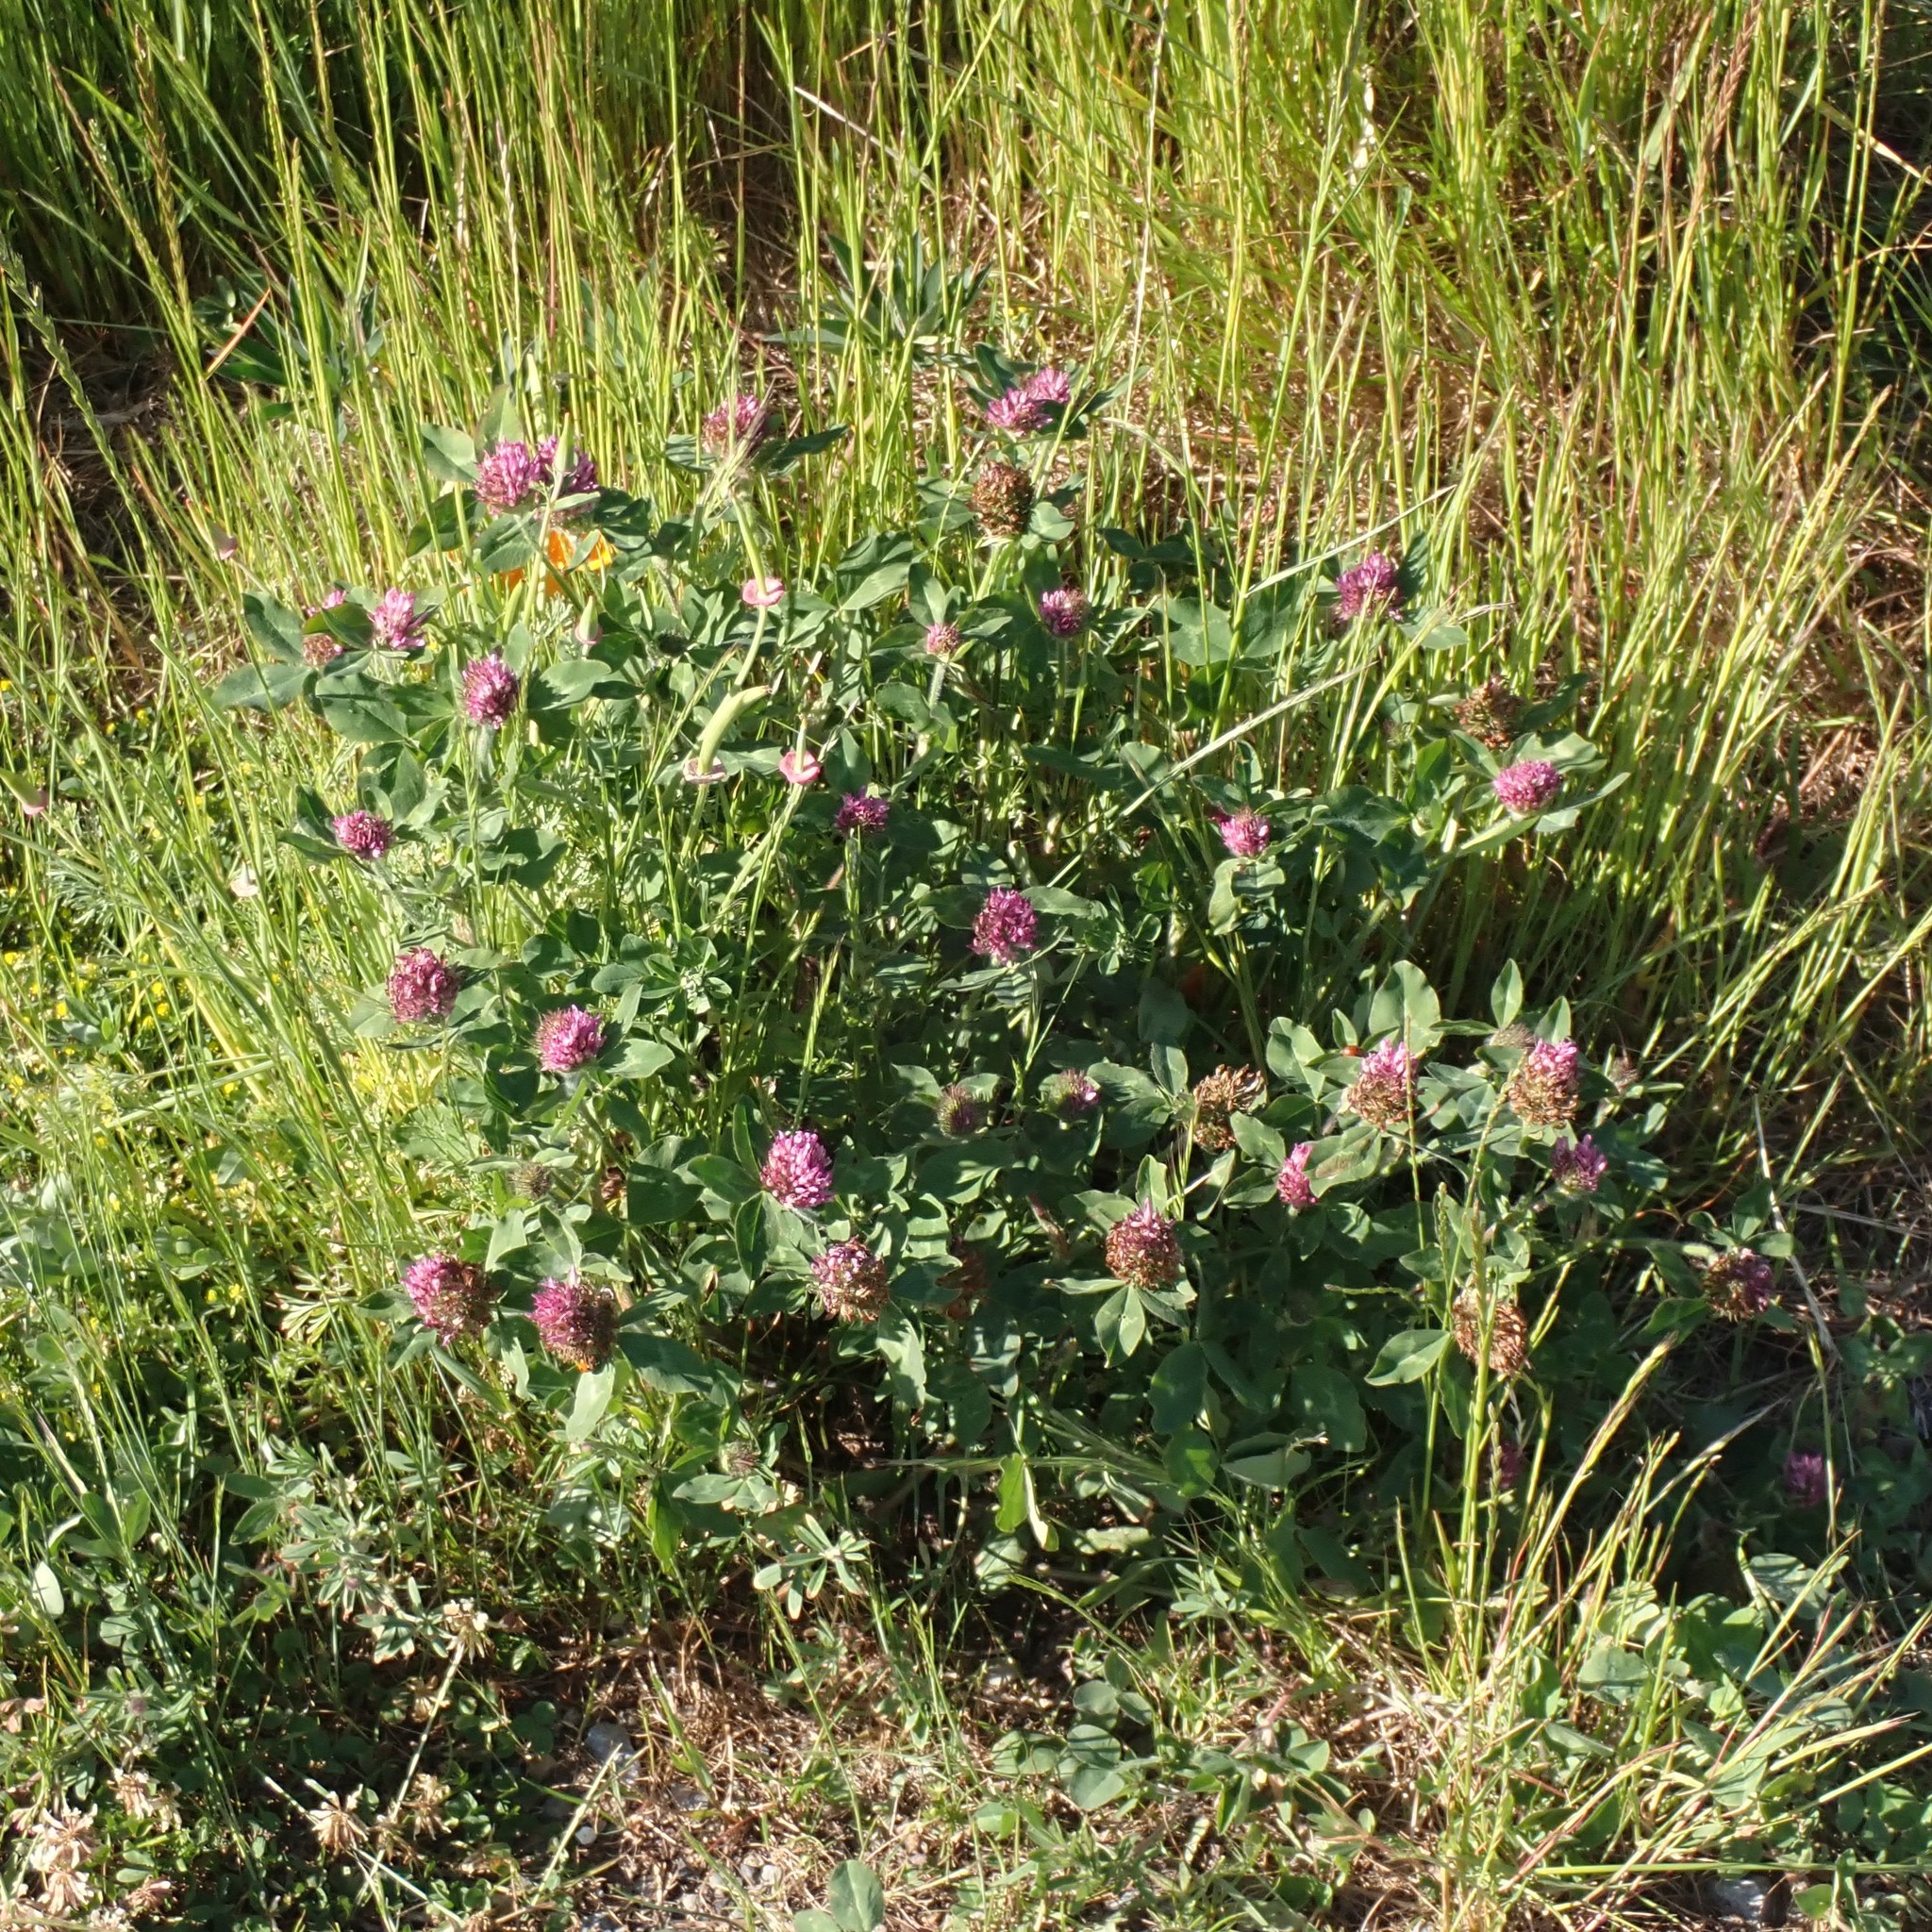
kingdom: Plantae
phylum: Tracheophyta
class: Magnoliopsida
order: Fabales
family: Fabaceae
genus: Trifolium
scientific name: Trifolium pratense
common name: Red clover
